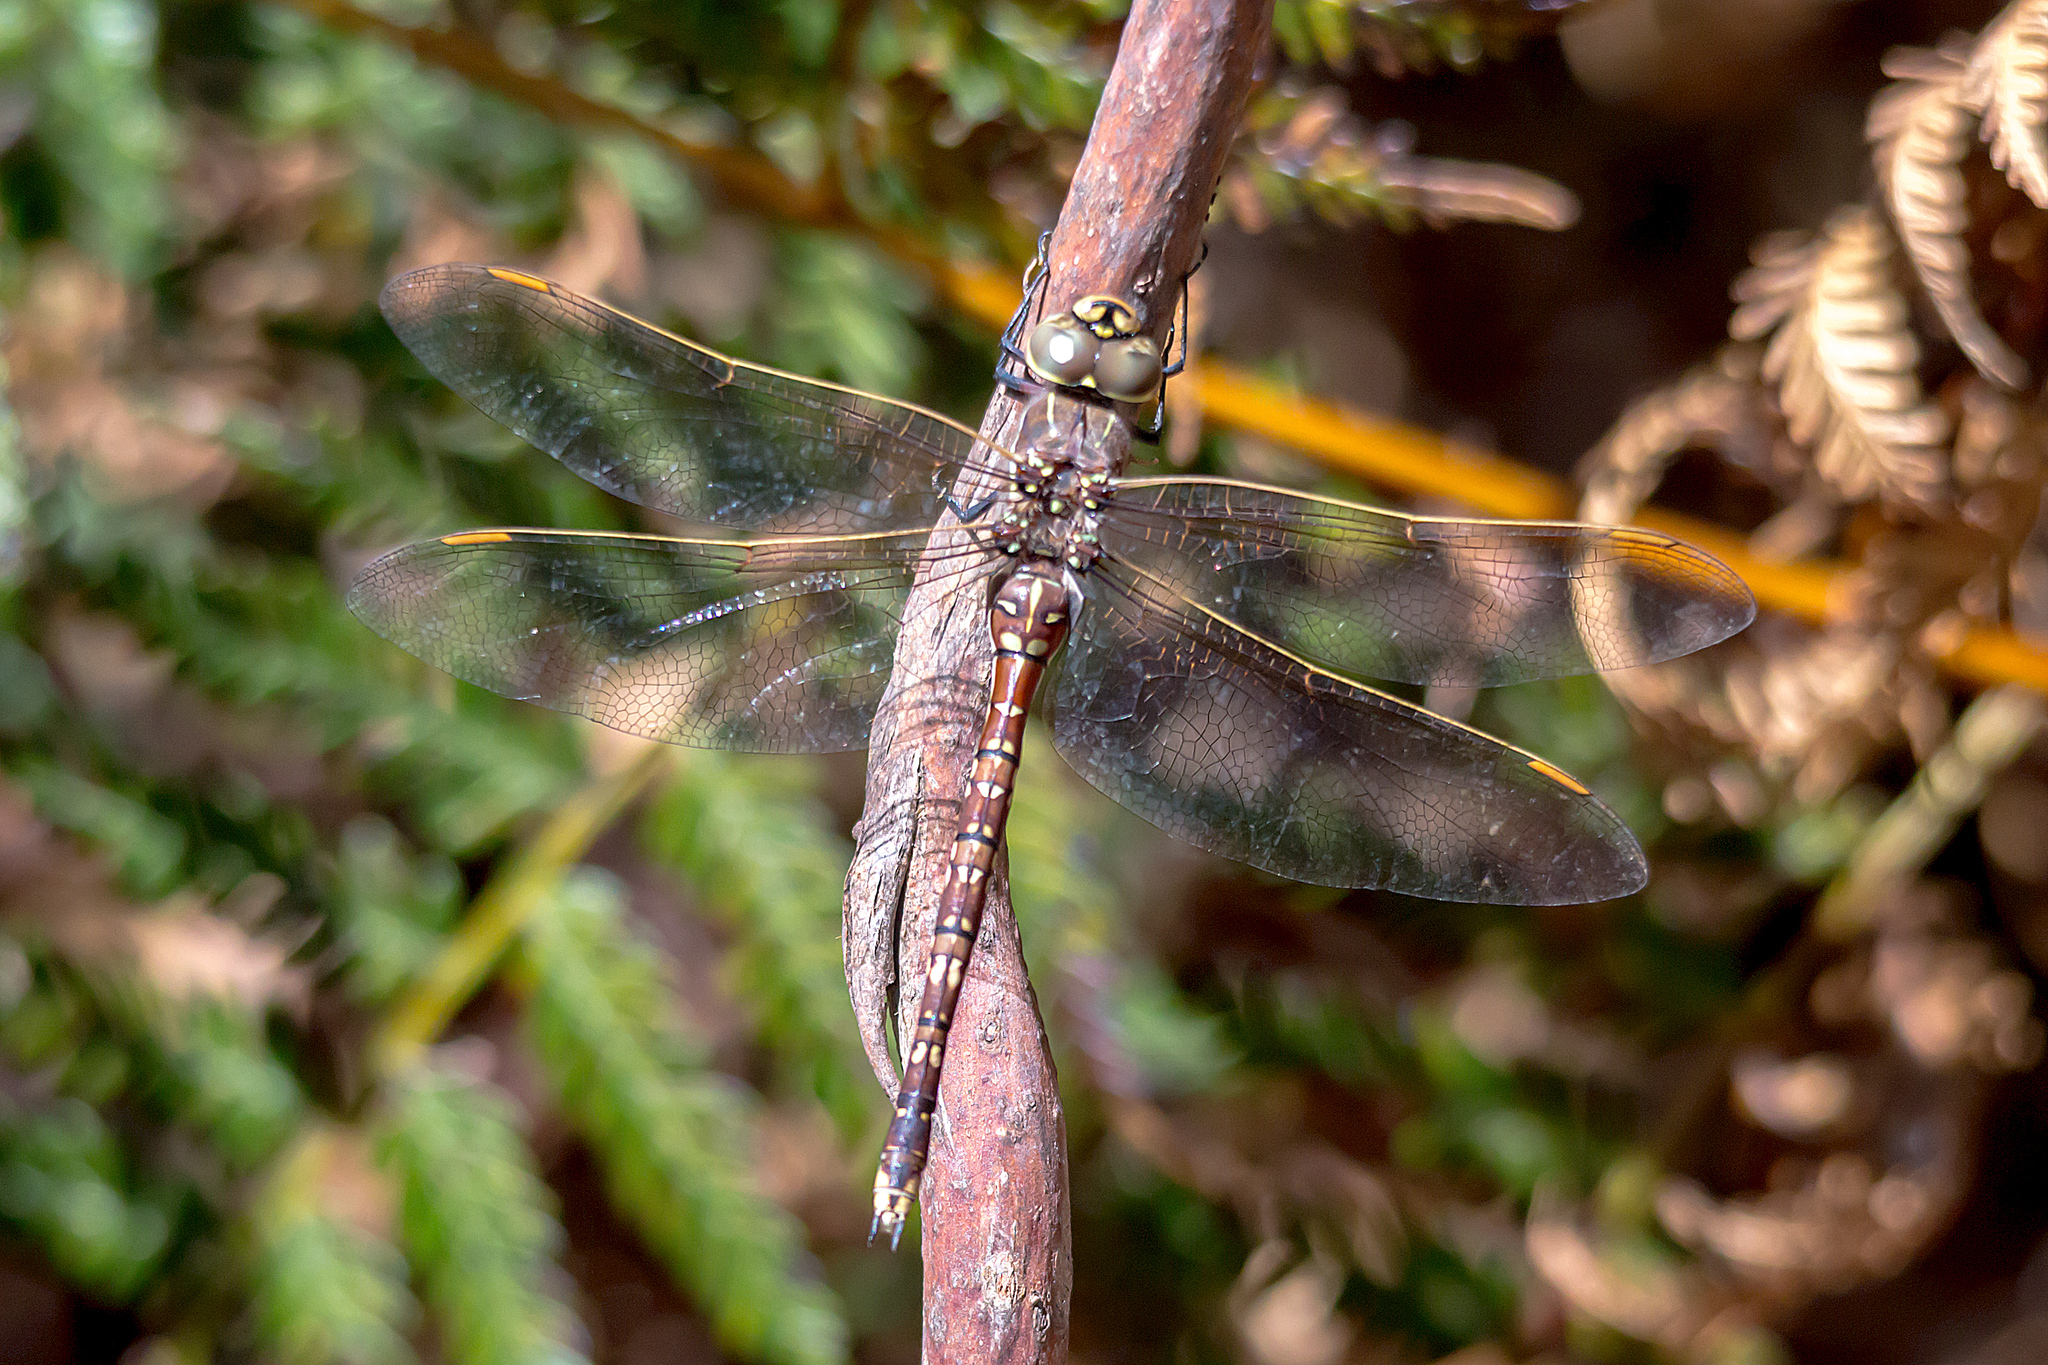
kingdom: Animalia
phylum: Arthropoda
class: Insecta
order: Odonata
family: Aeshnidae
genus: Aeshna
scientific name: Aeshna brevistyla
